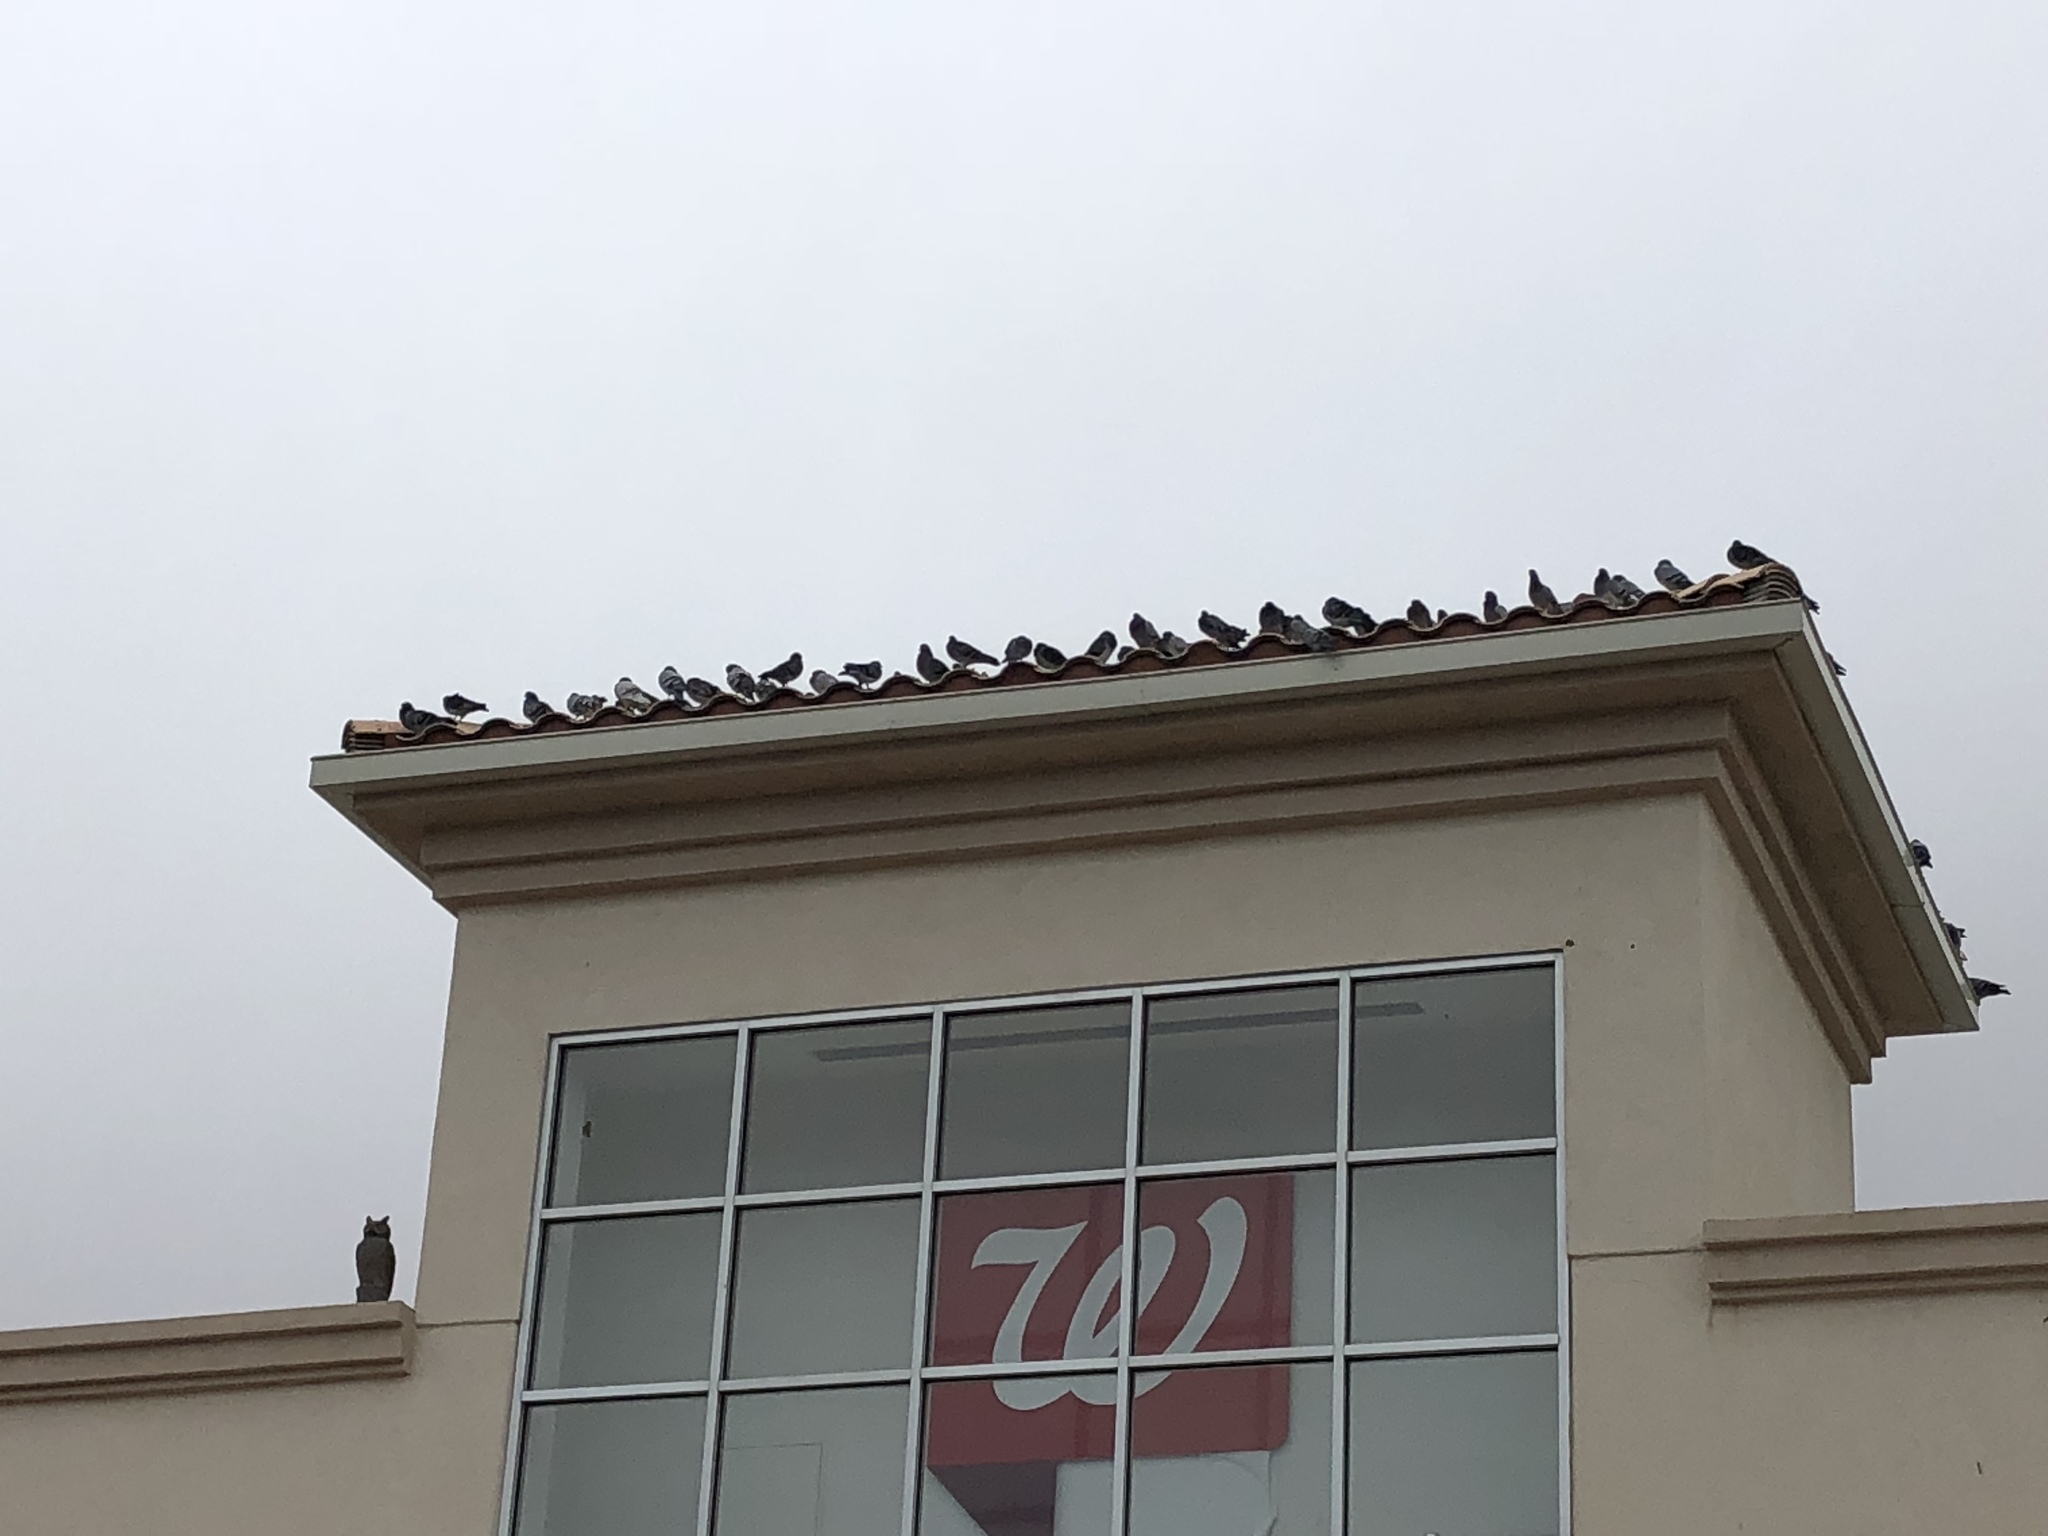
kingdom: Animalia
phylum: Chordata
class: Aves
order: Columbiformes
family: Columbidae
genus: Columba
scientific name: Columba livia
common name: Rock pigeon
